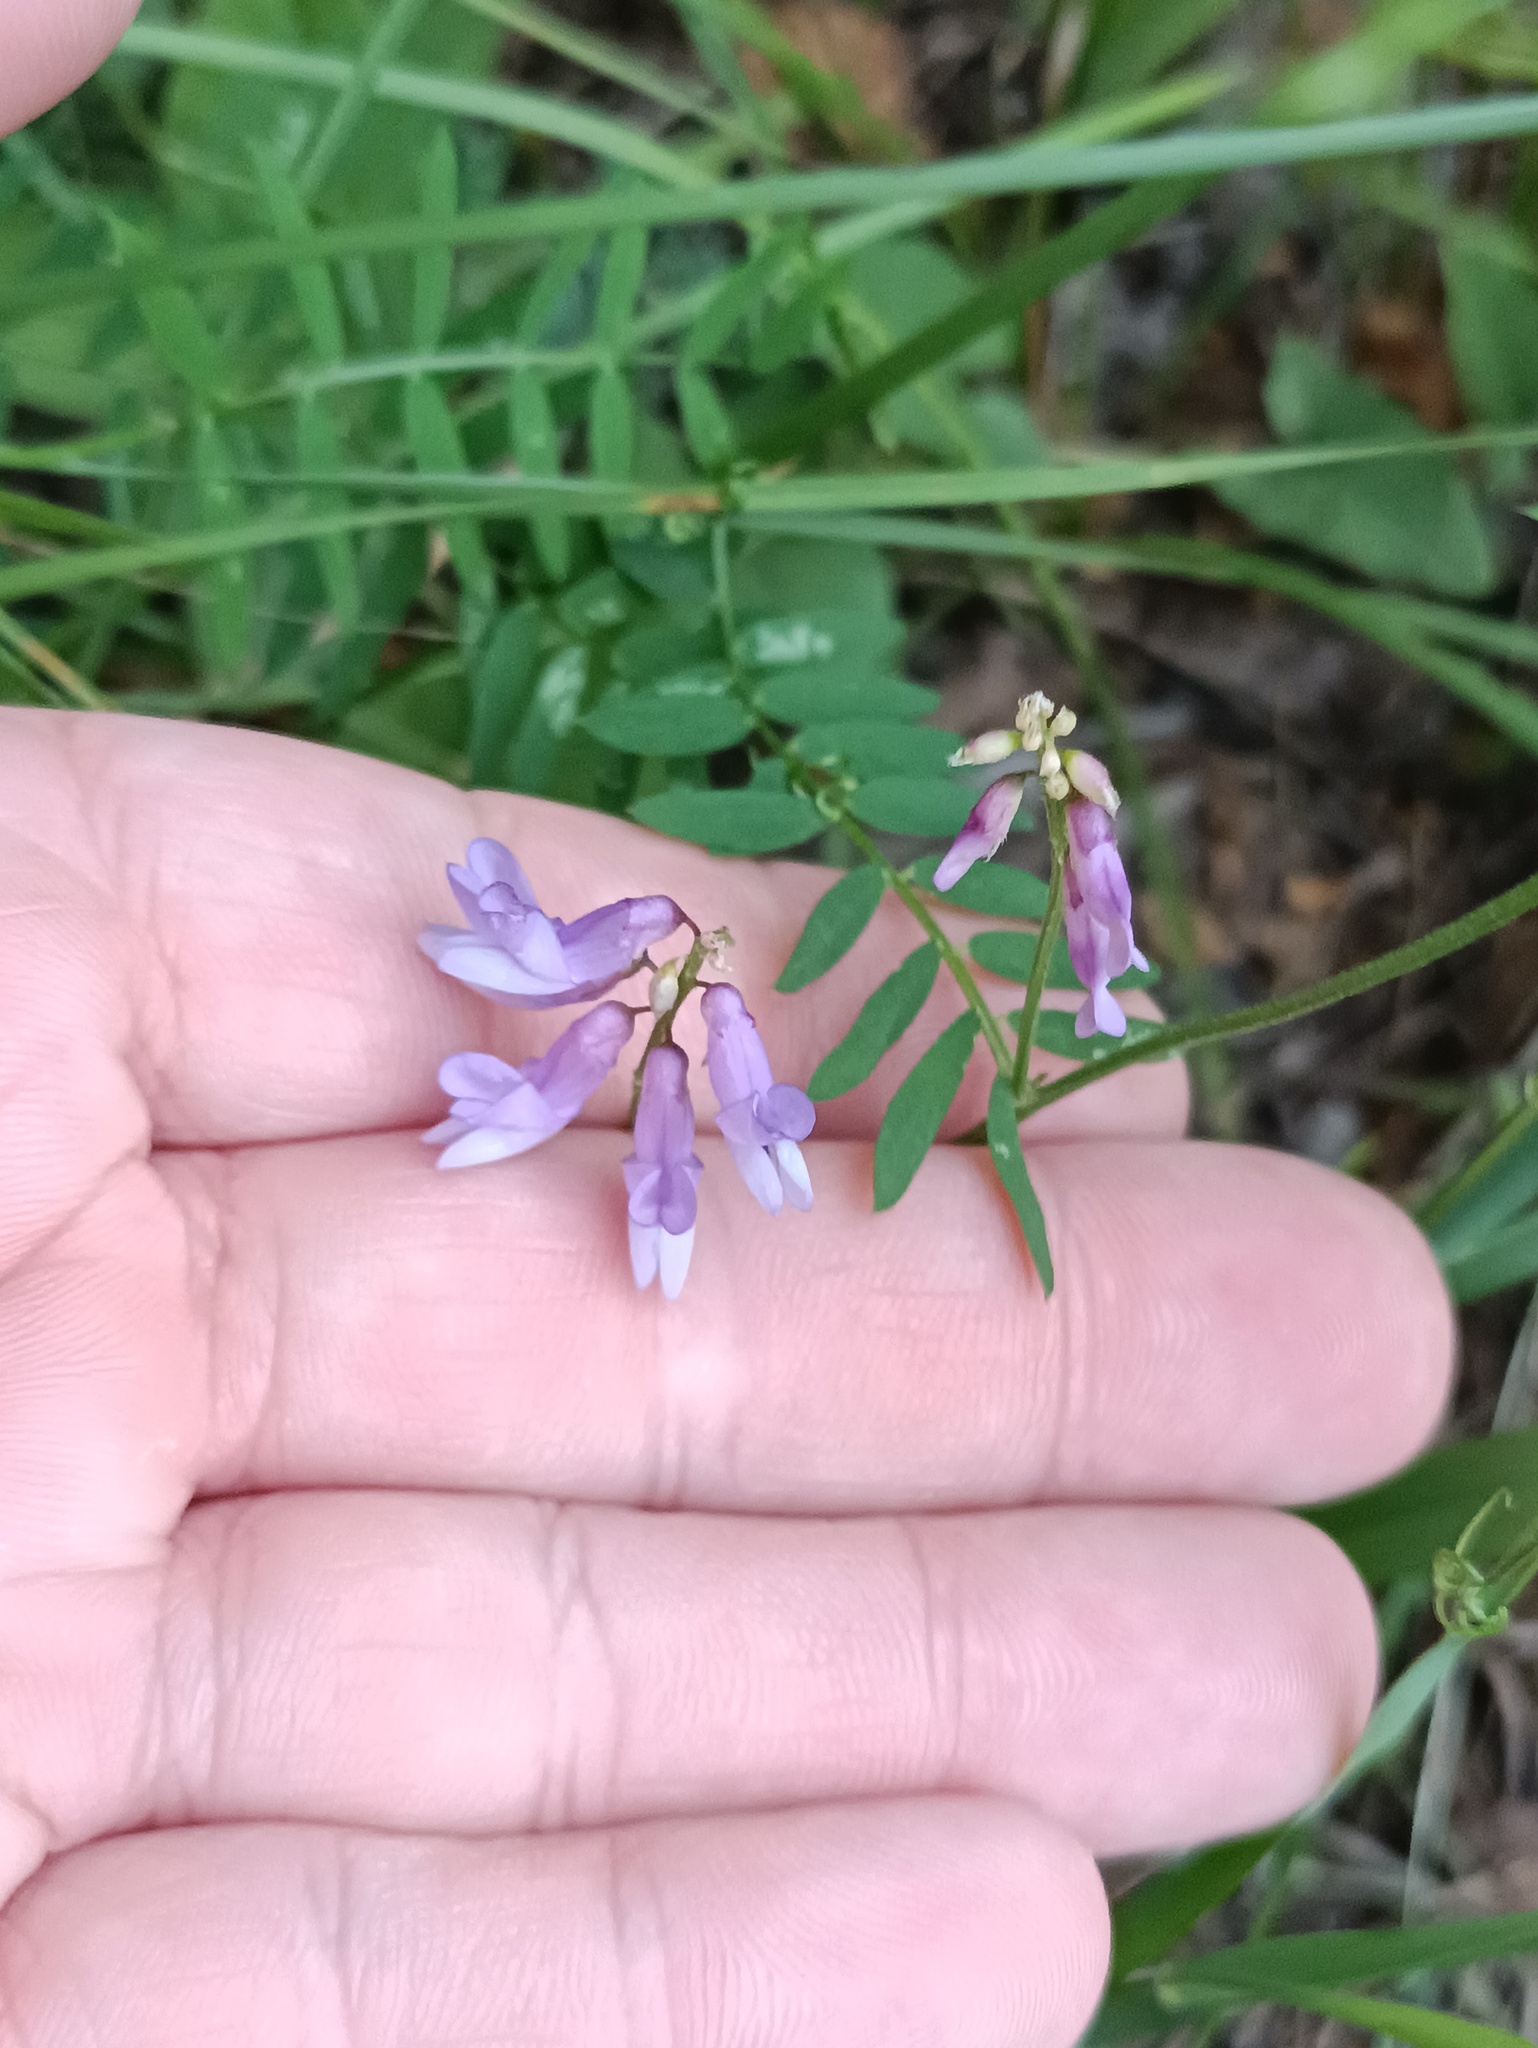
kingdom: Plantae
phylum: Tracheophyta
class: Magnoliopsida
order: Fabales
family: Fabaceae
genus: Vicia
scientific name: Vicia cracca
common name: Bird vetch
